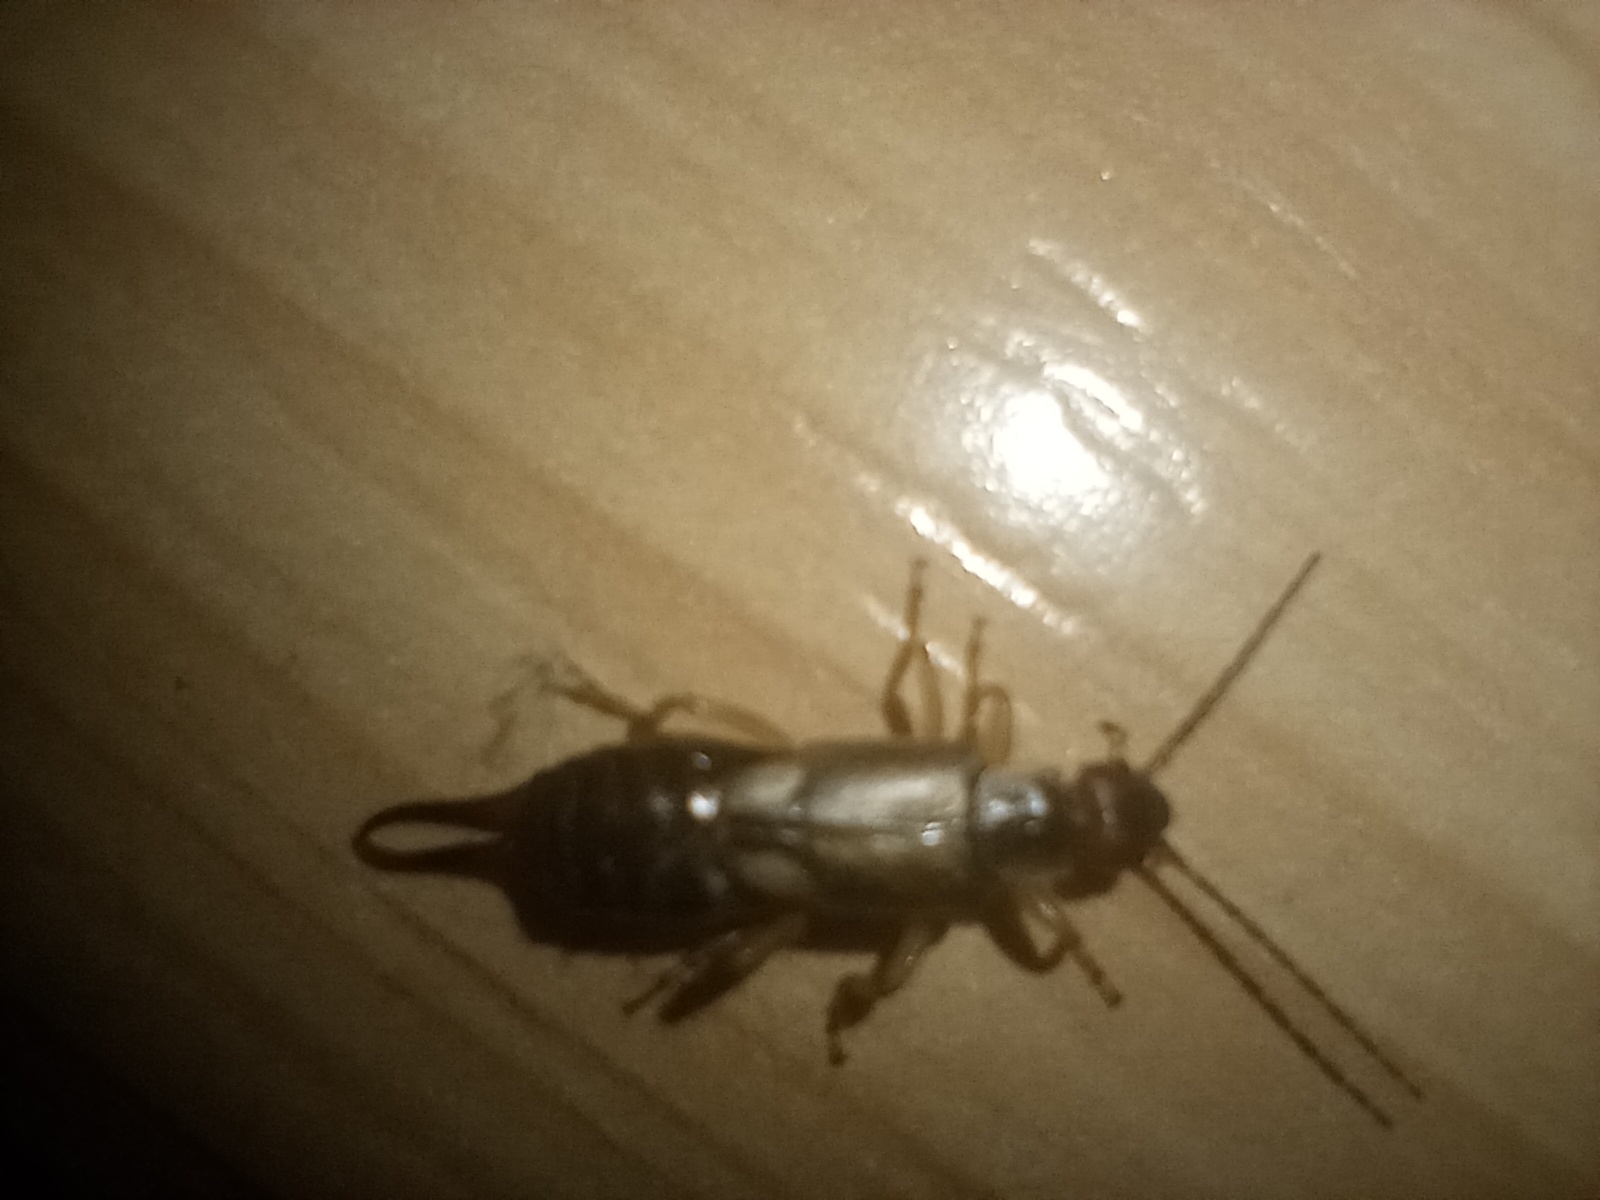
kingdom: Animalia
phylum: Arthropoda
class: Insecta
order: Dermaptera
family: Forficulidae
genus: Forficula
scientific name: Forficula dentata
